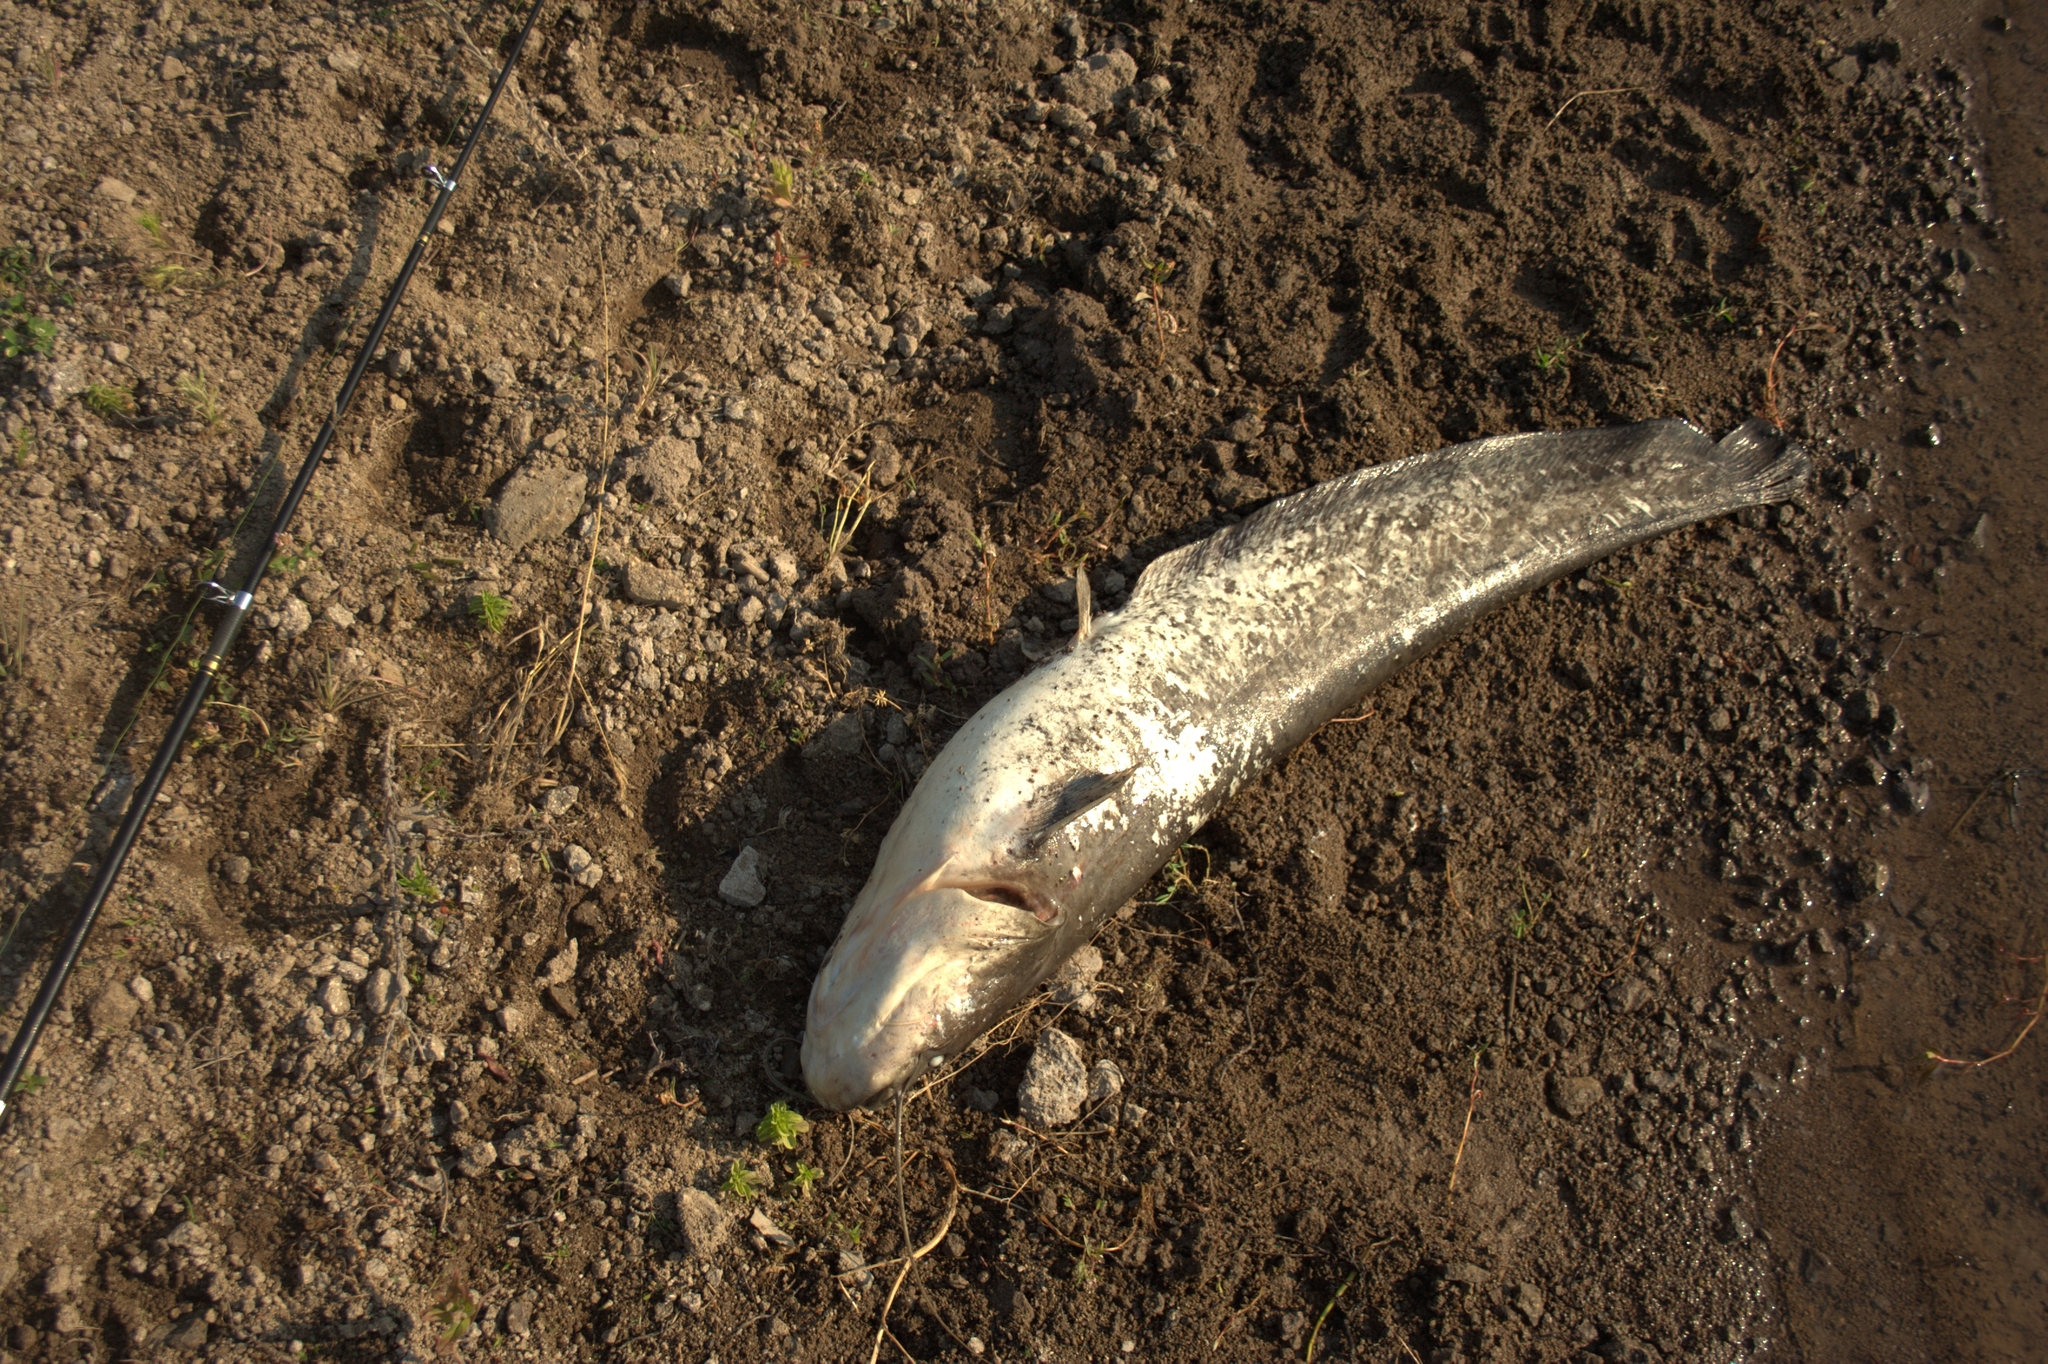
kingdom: Animalia
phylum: Chordata
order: Siluriformes
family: Siluridae
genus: Silurus
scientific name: Silurus glanis
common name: Wels
